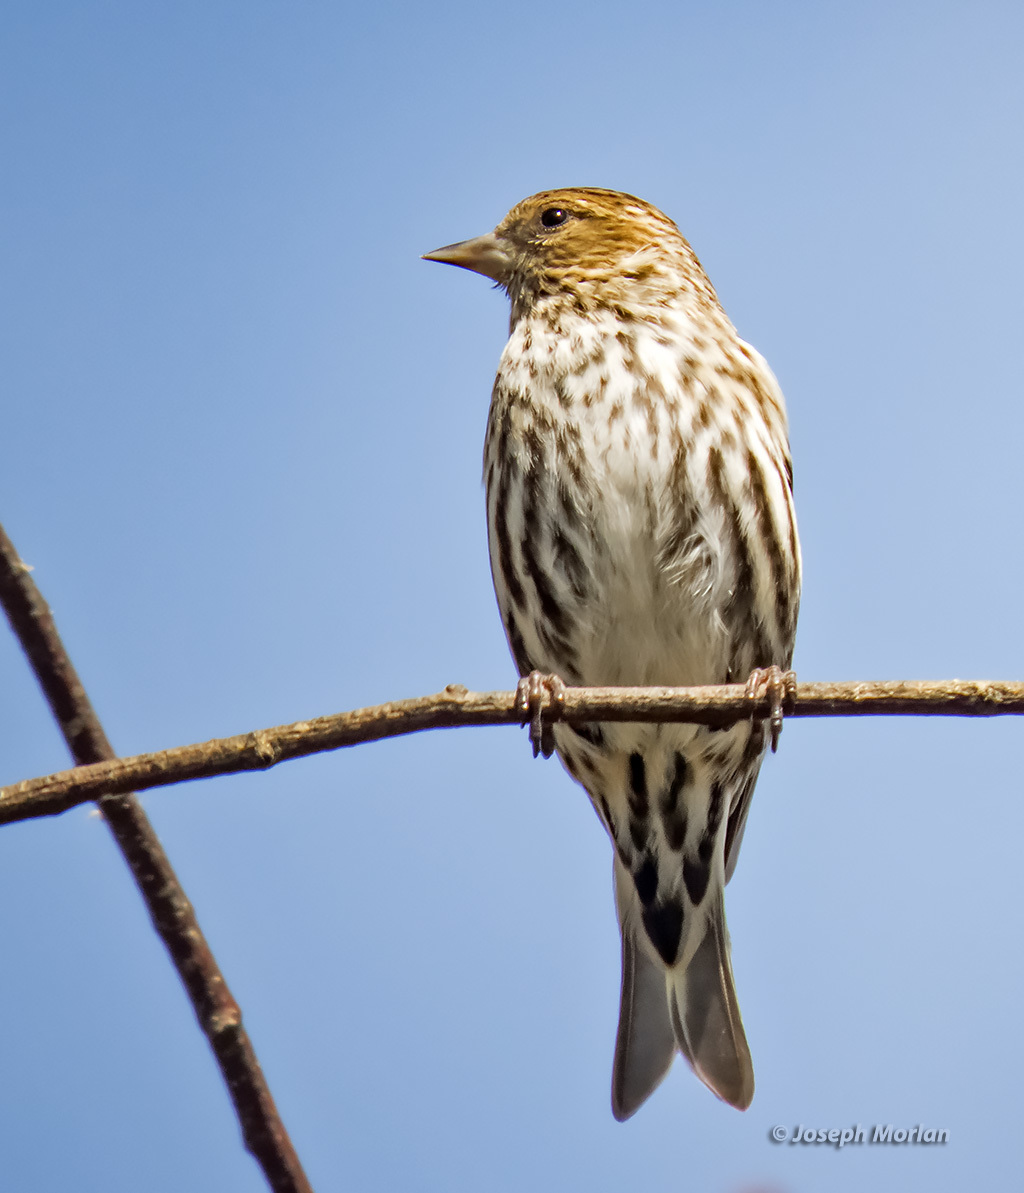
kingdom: Animalia
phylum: Chordata
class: Aves
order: Passeriformes
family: Fringillidae
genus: Spinus
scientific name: Spinus pinus
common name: Pine siskin
